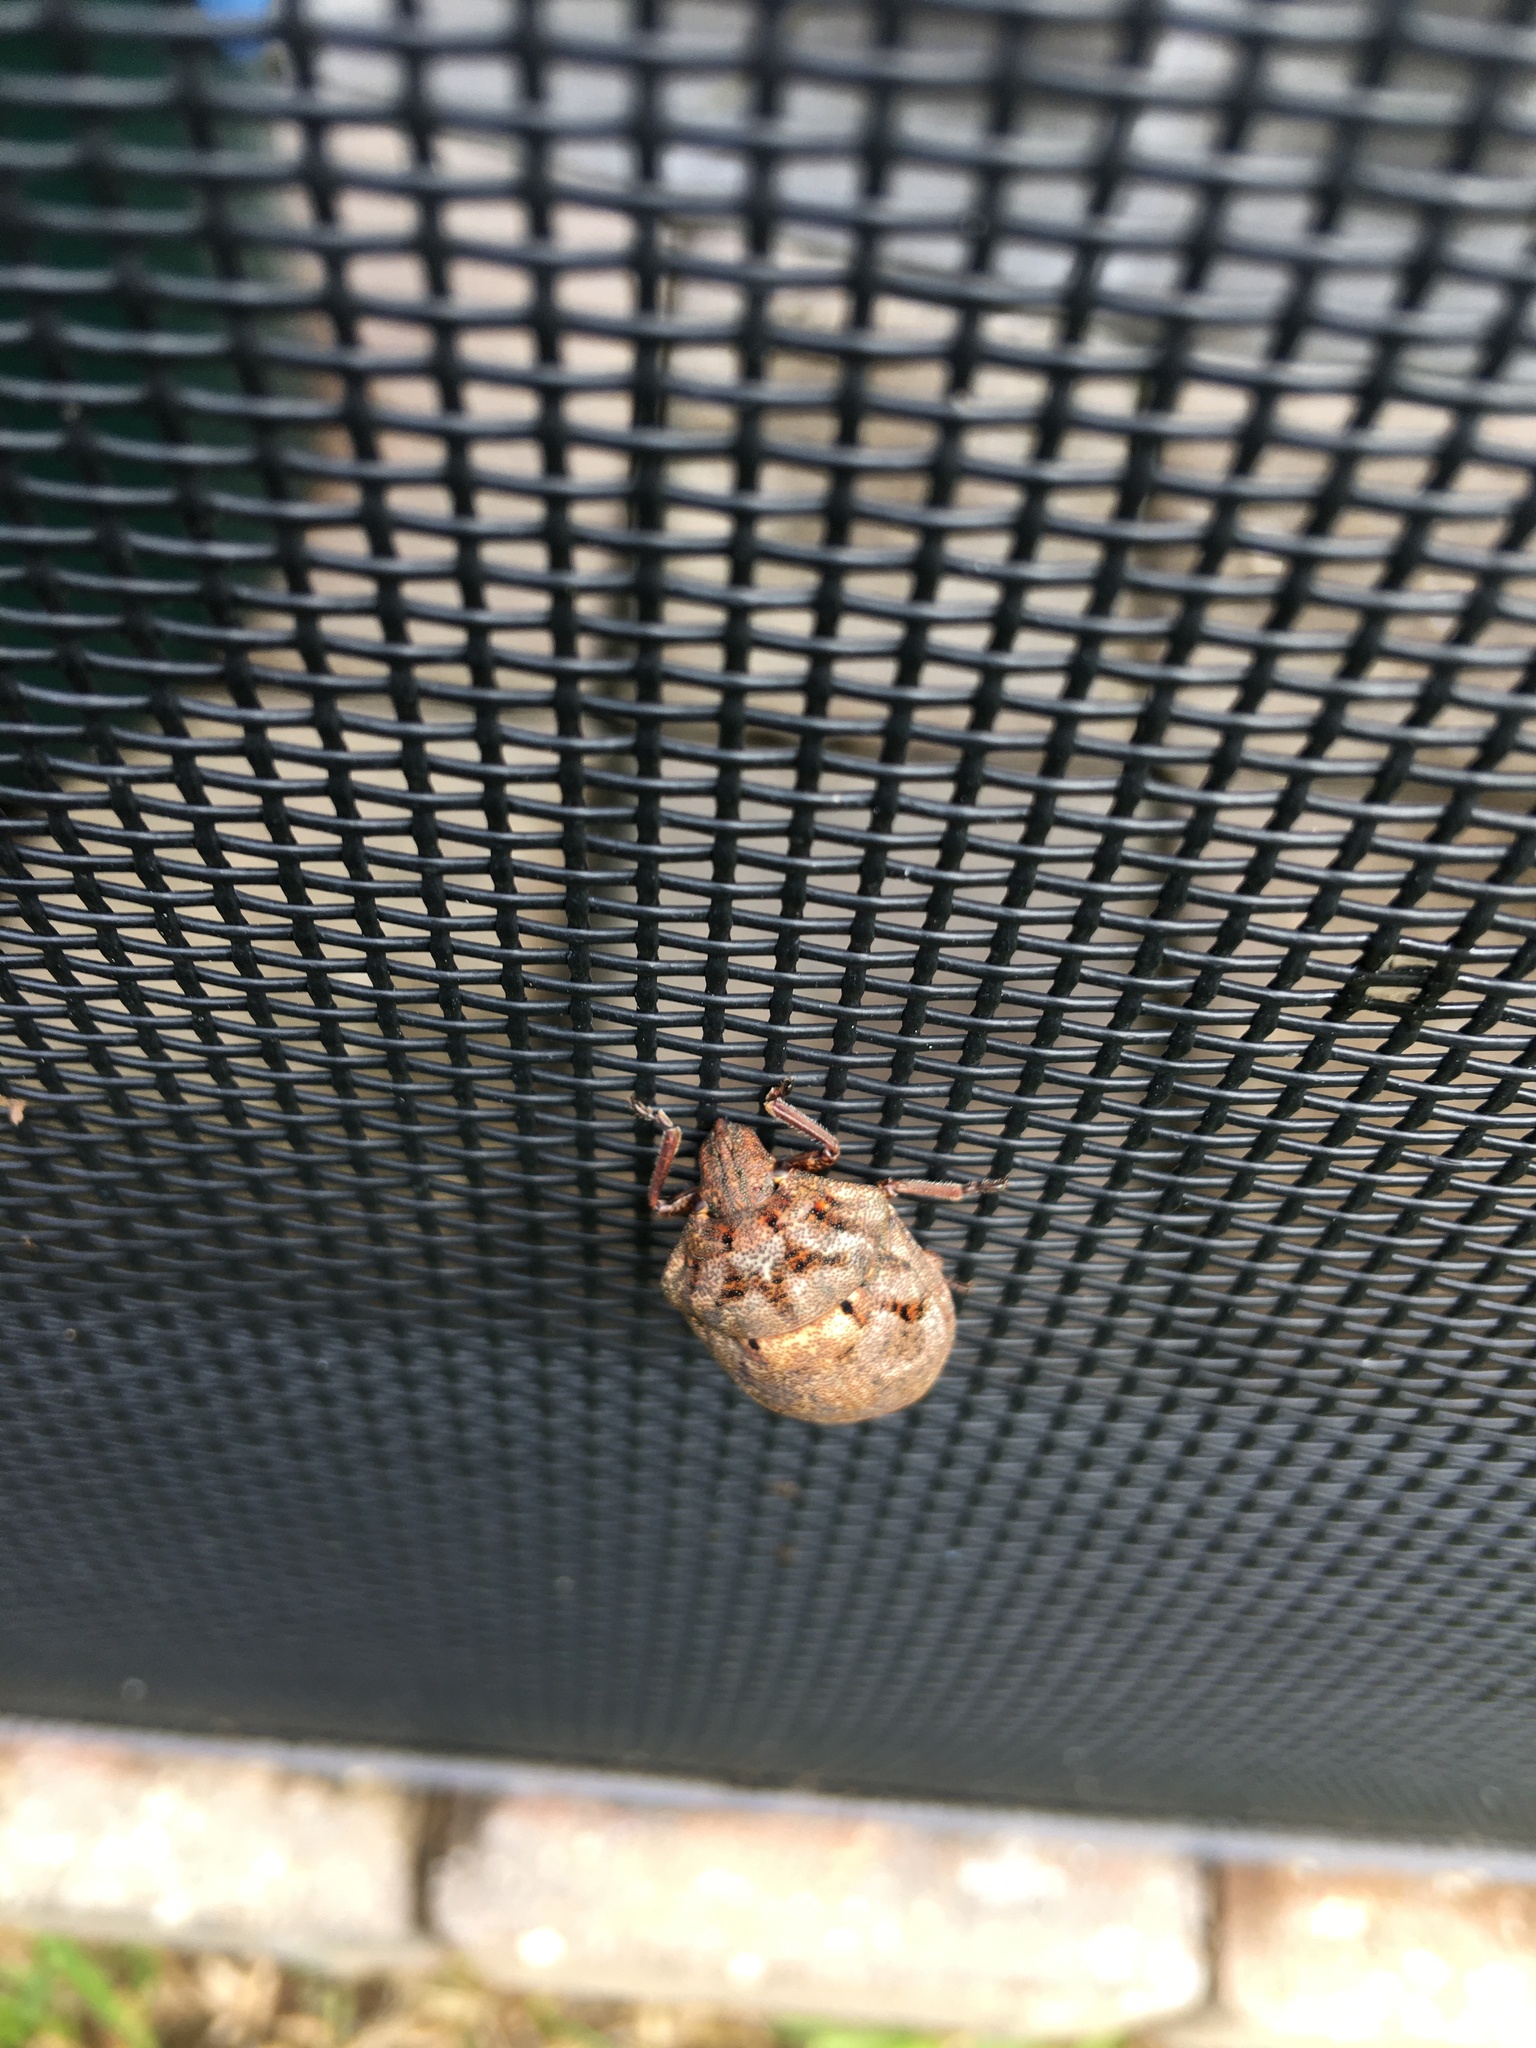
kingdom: Animalia
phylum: Arthropoda
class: Insecta
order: Hemiptera
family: Scutelleridae
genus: Tetyra
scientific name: Tetyra bipunctata
